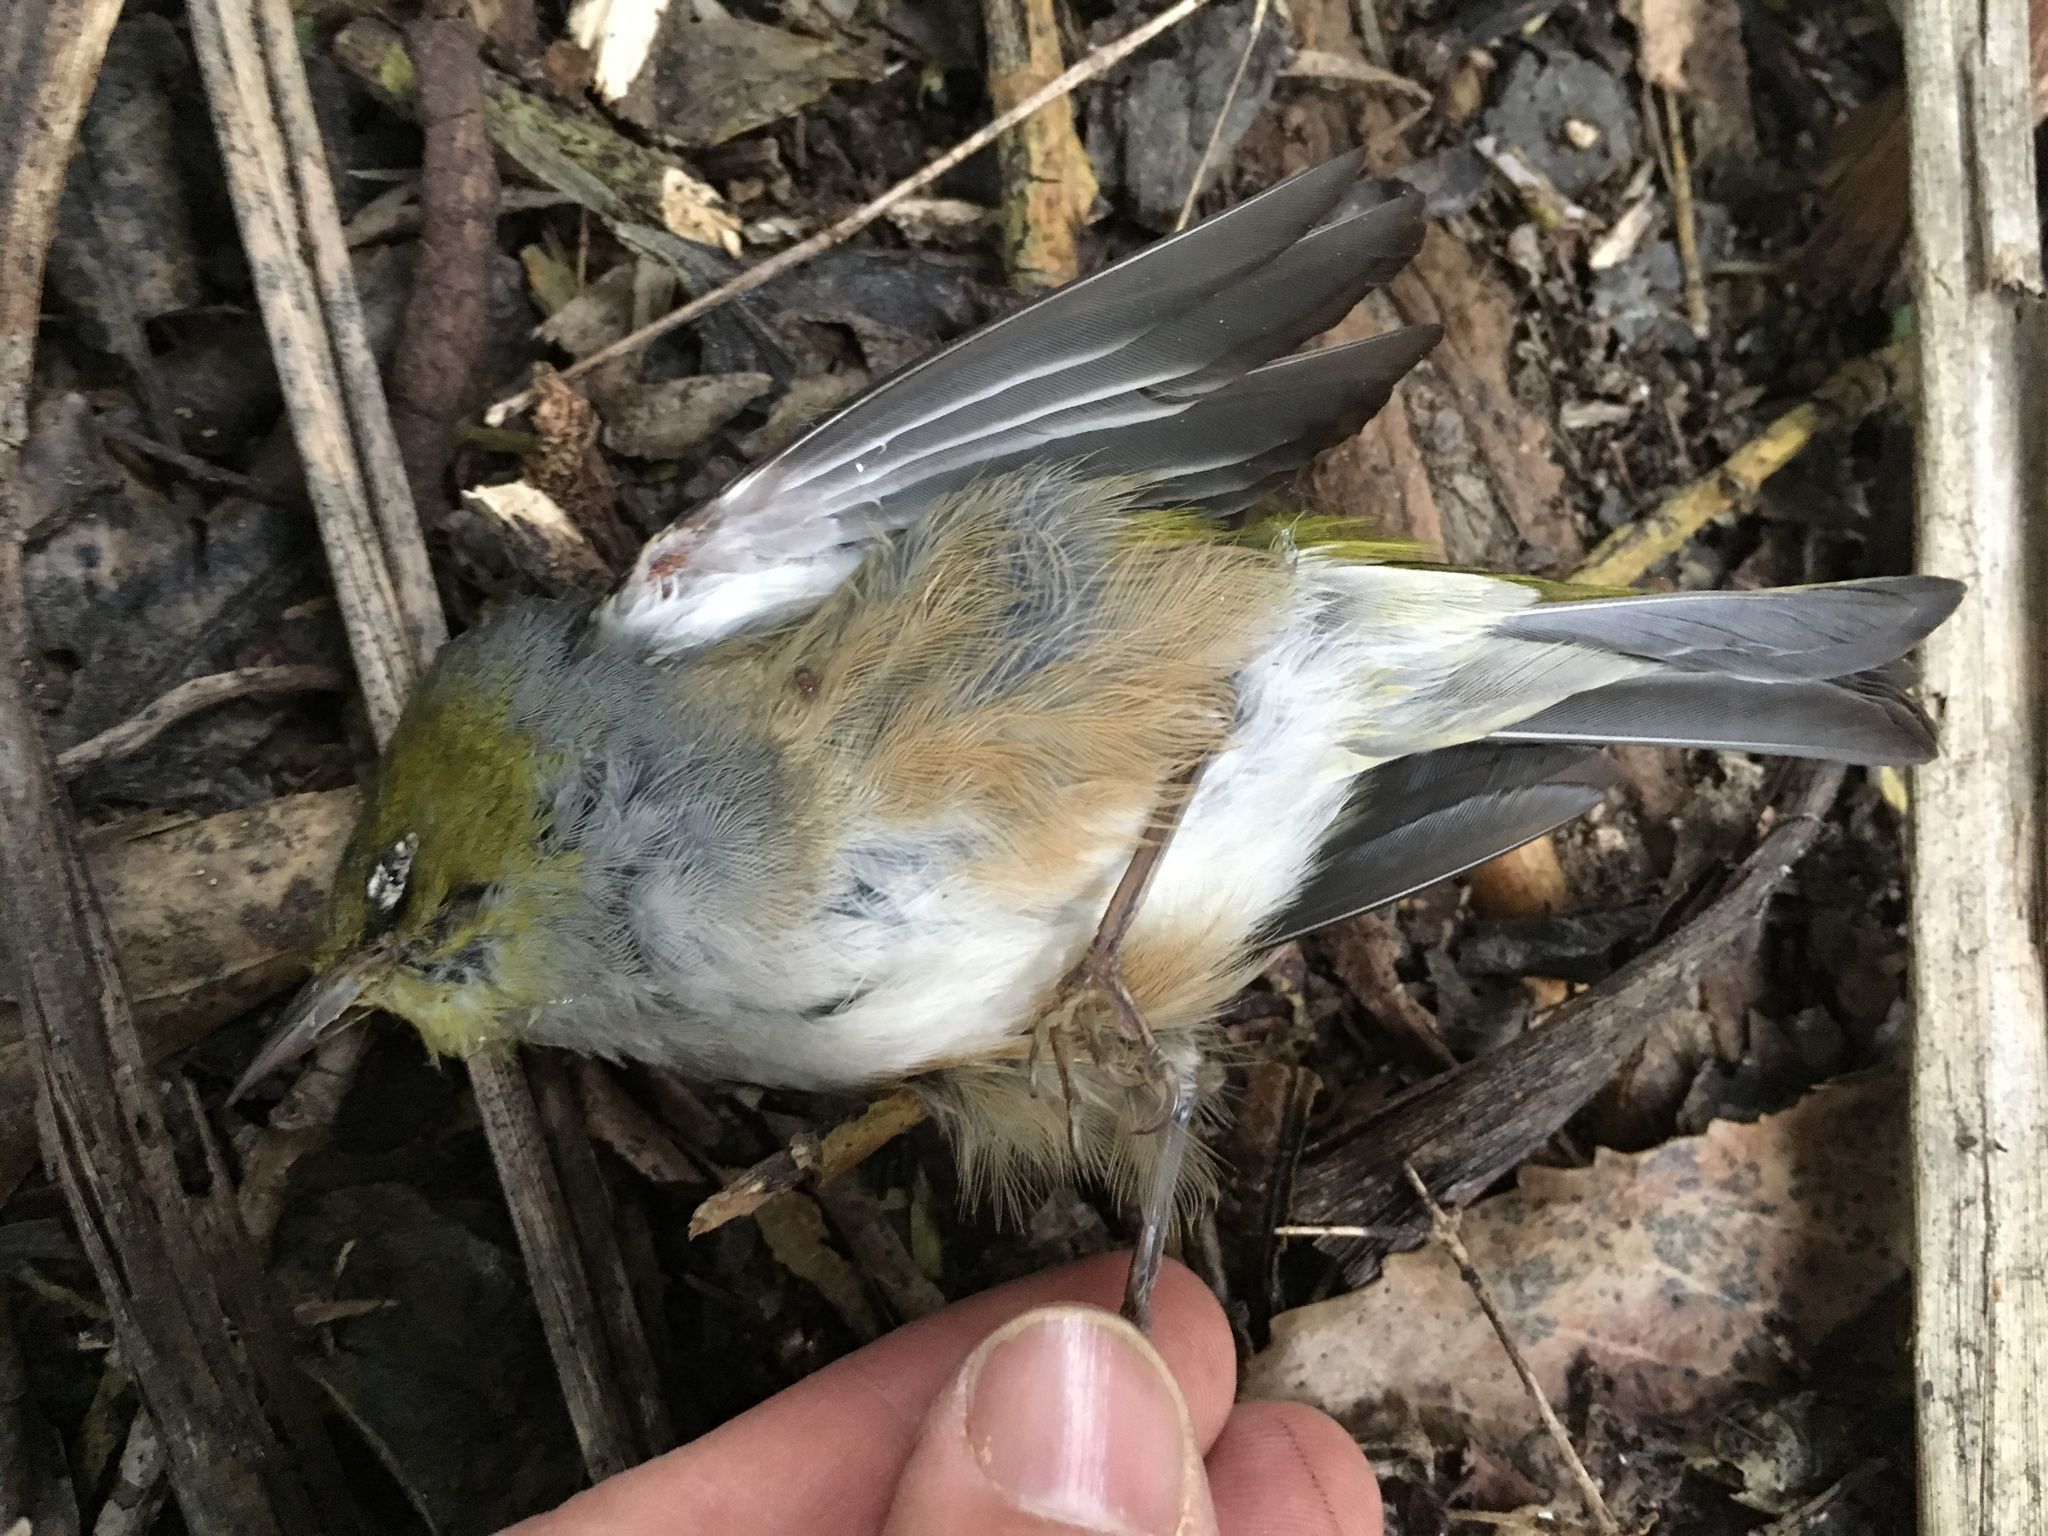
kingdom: Animalia
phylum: Chordata
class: Aves
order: Passeriformes
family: Zosteropidae
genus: Zosterops
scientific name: Zosterops lateralis
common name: Silvereye
